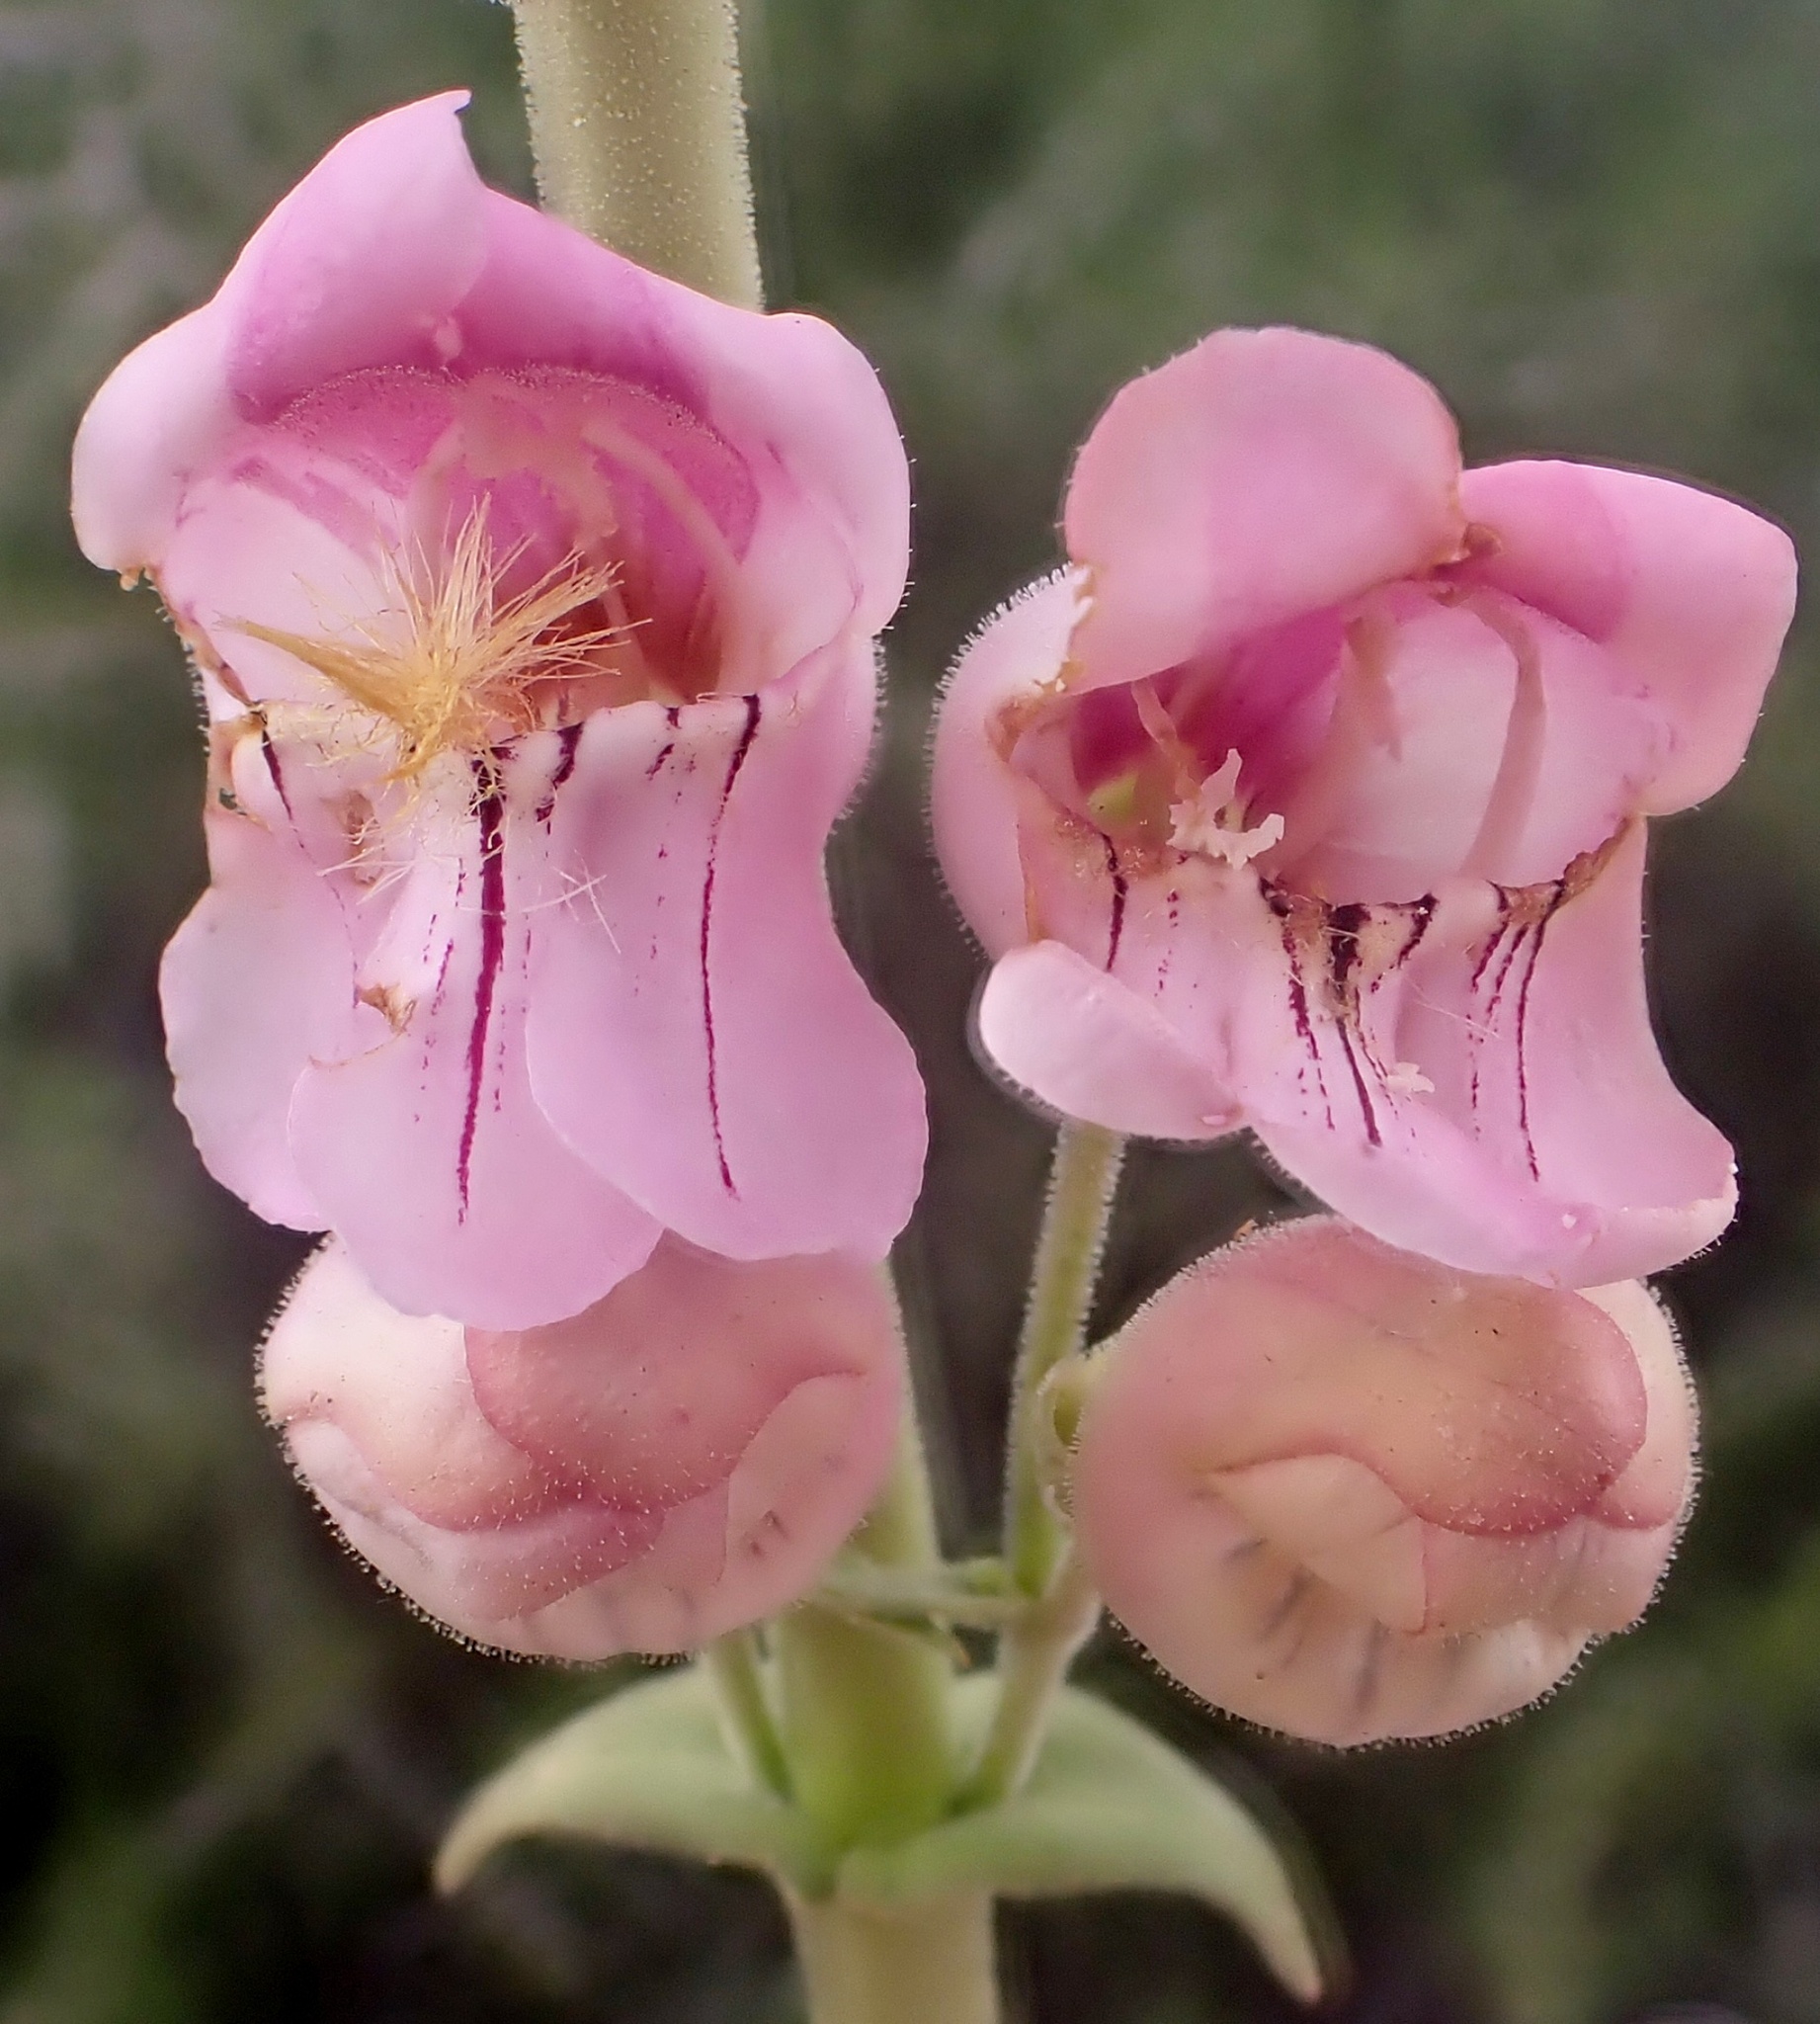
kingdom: Plantae
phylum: Tracheophyta
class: Magnoliopsida
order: Lamiales
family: Plantaginaceae
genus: Penstemon
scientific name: Penstemon palmeri
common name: Palmer penstemon
